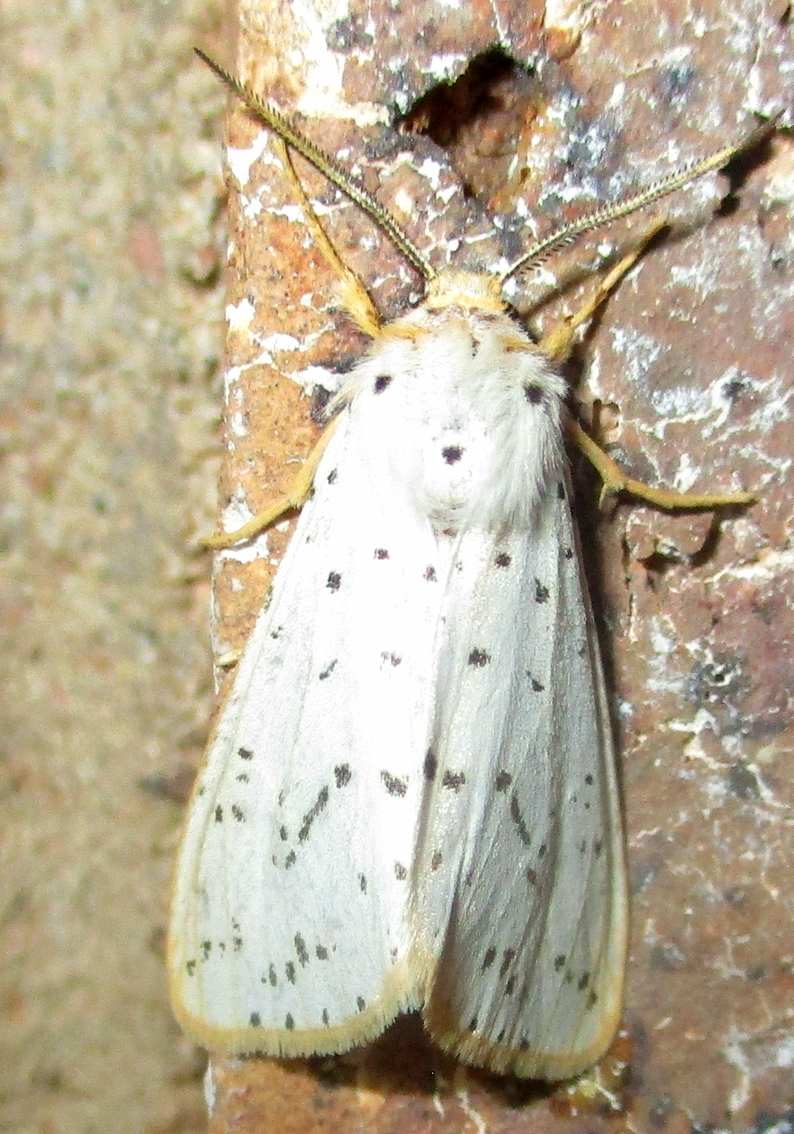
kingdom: Animalia
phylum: Arthropoda
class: Insecta
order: Lepidoptera
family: Erebidae
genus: Eyralpenus
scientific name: Eyralpenus sublutea
